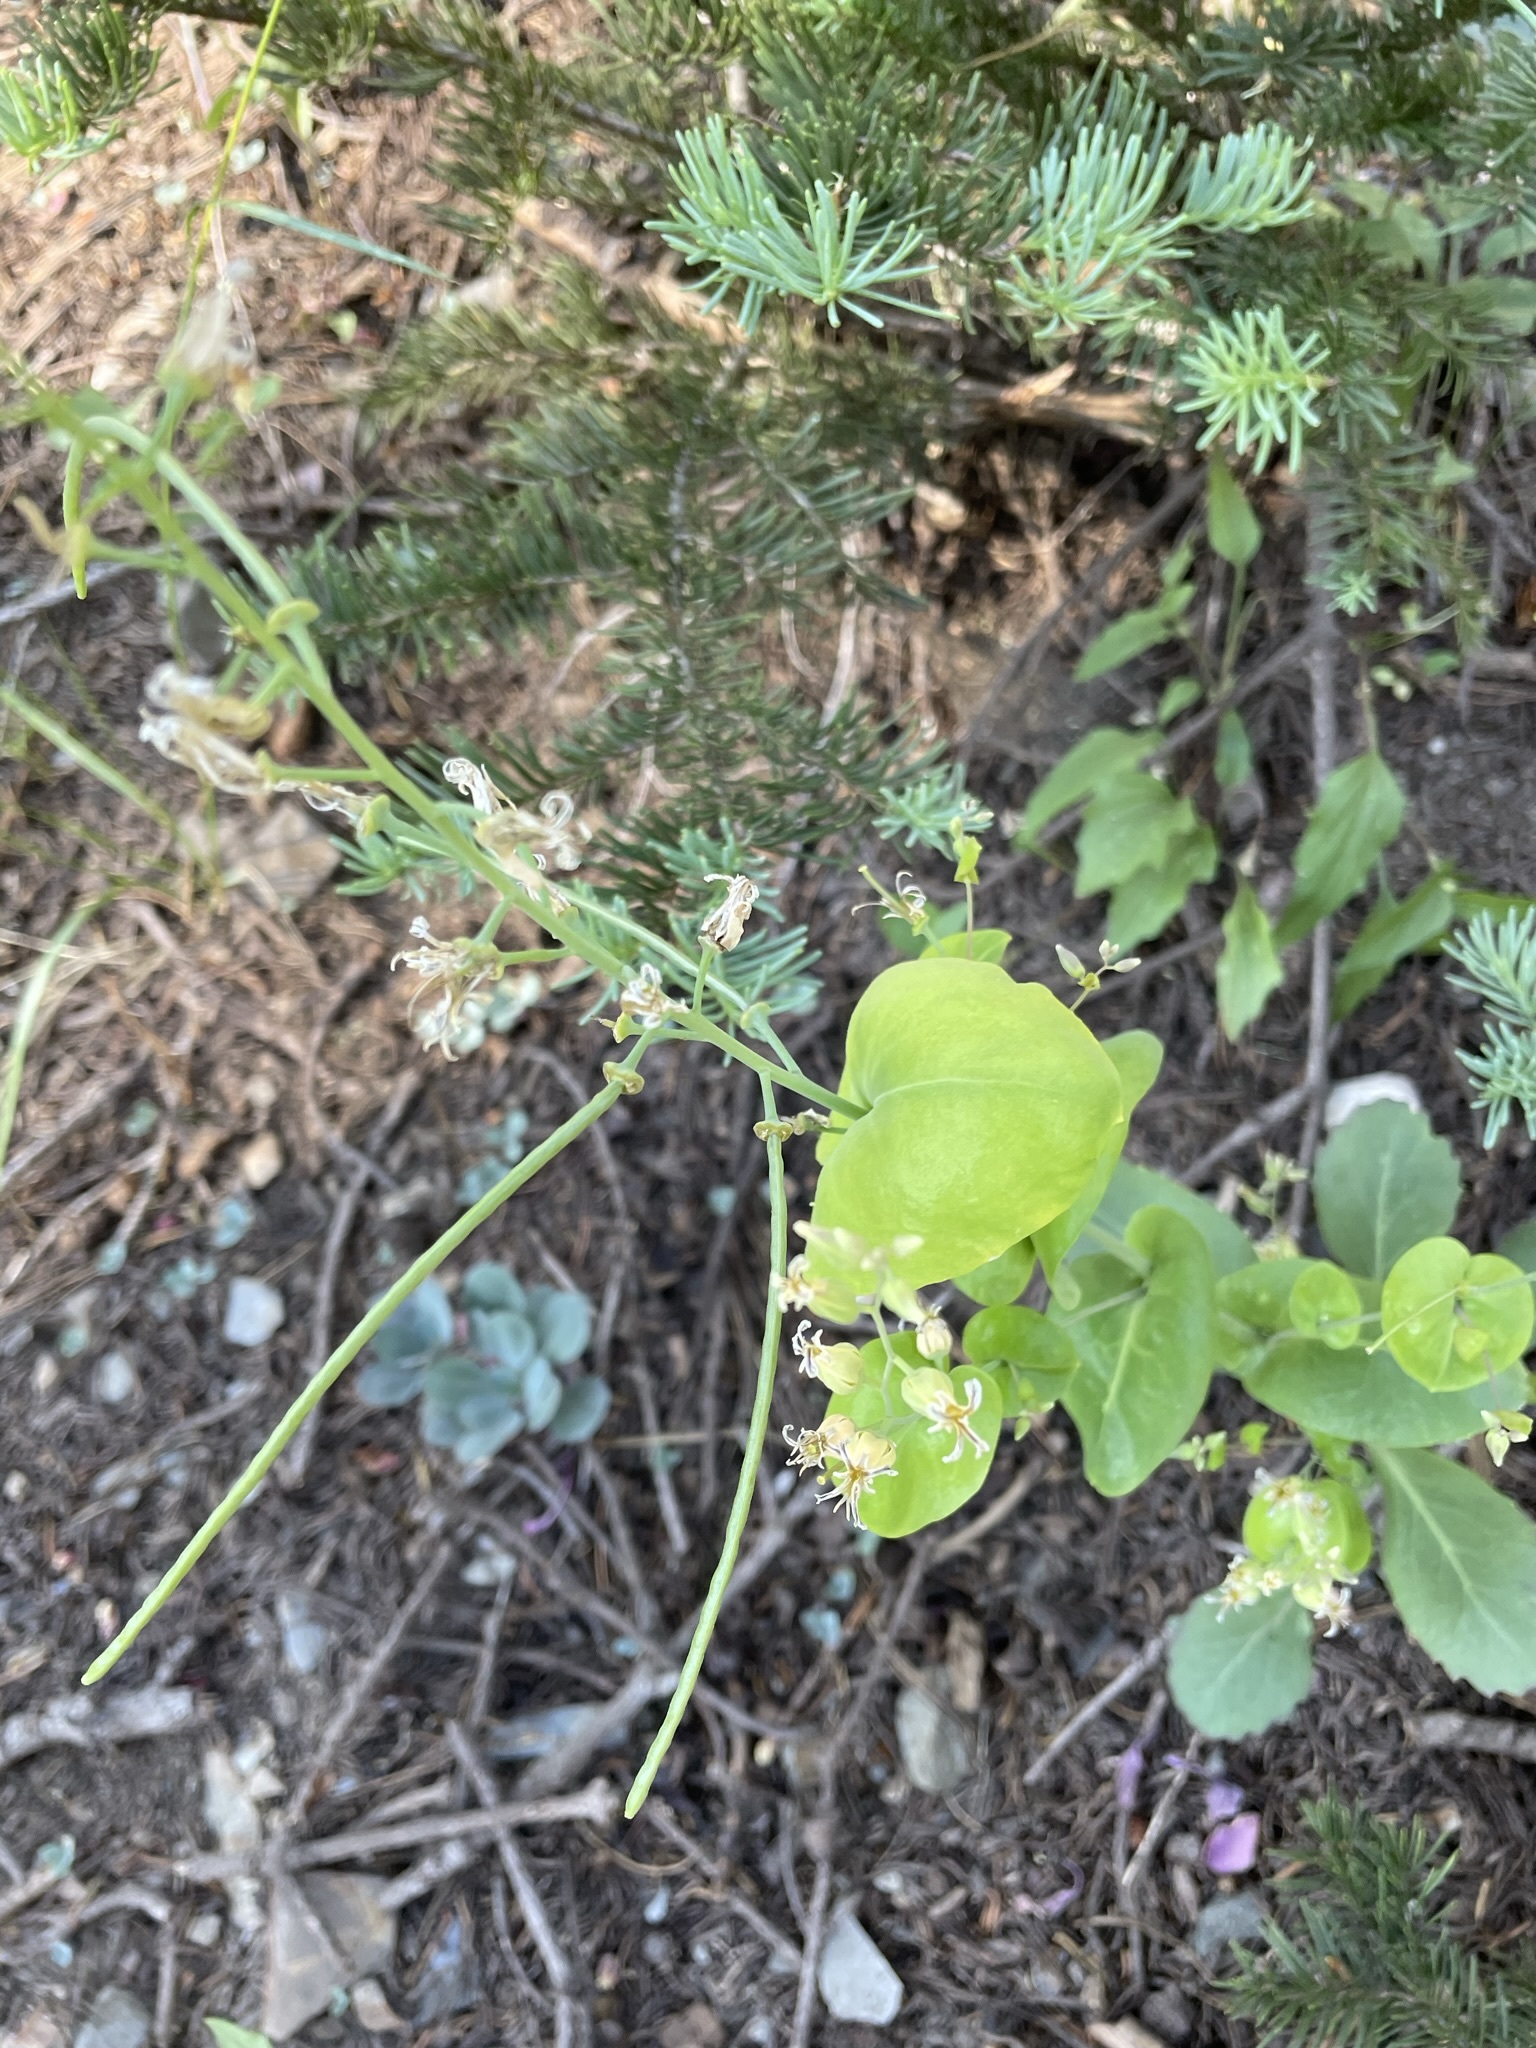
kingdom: Plantae
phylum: Tracheophyta
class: Magnoliopsida
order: Brassicales
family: Brassicaceae
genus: Streptanthus
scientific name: Streptanthus tortuosus
